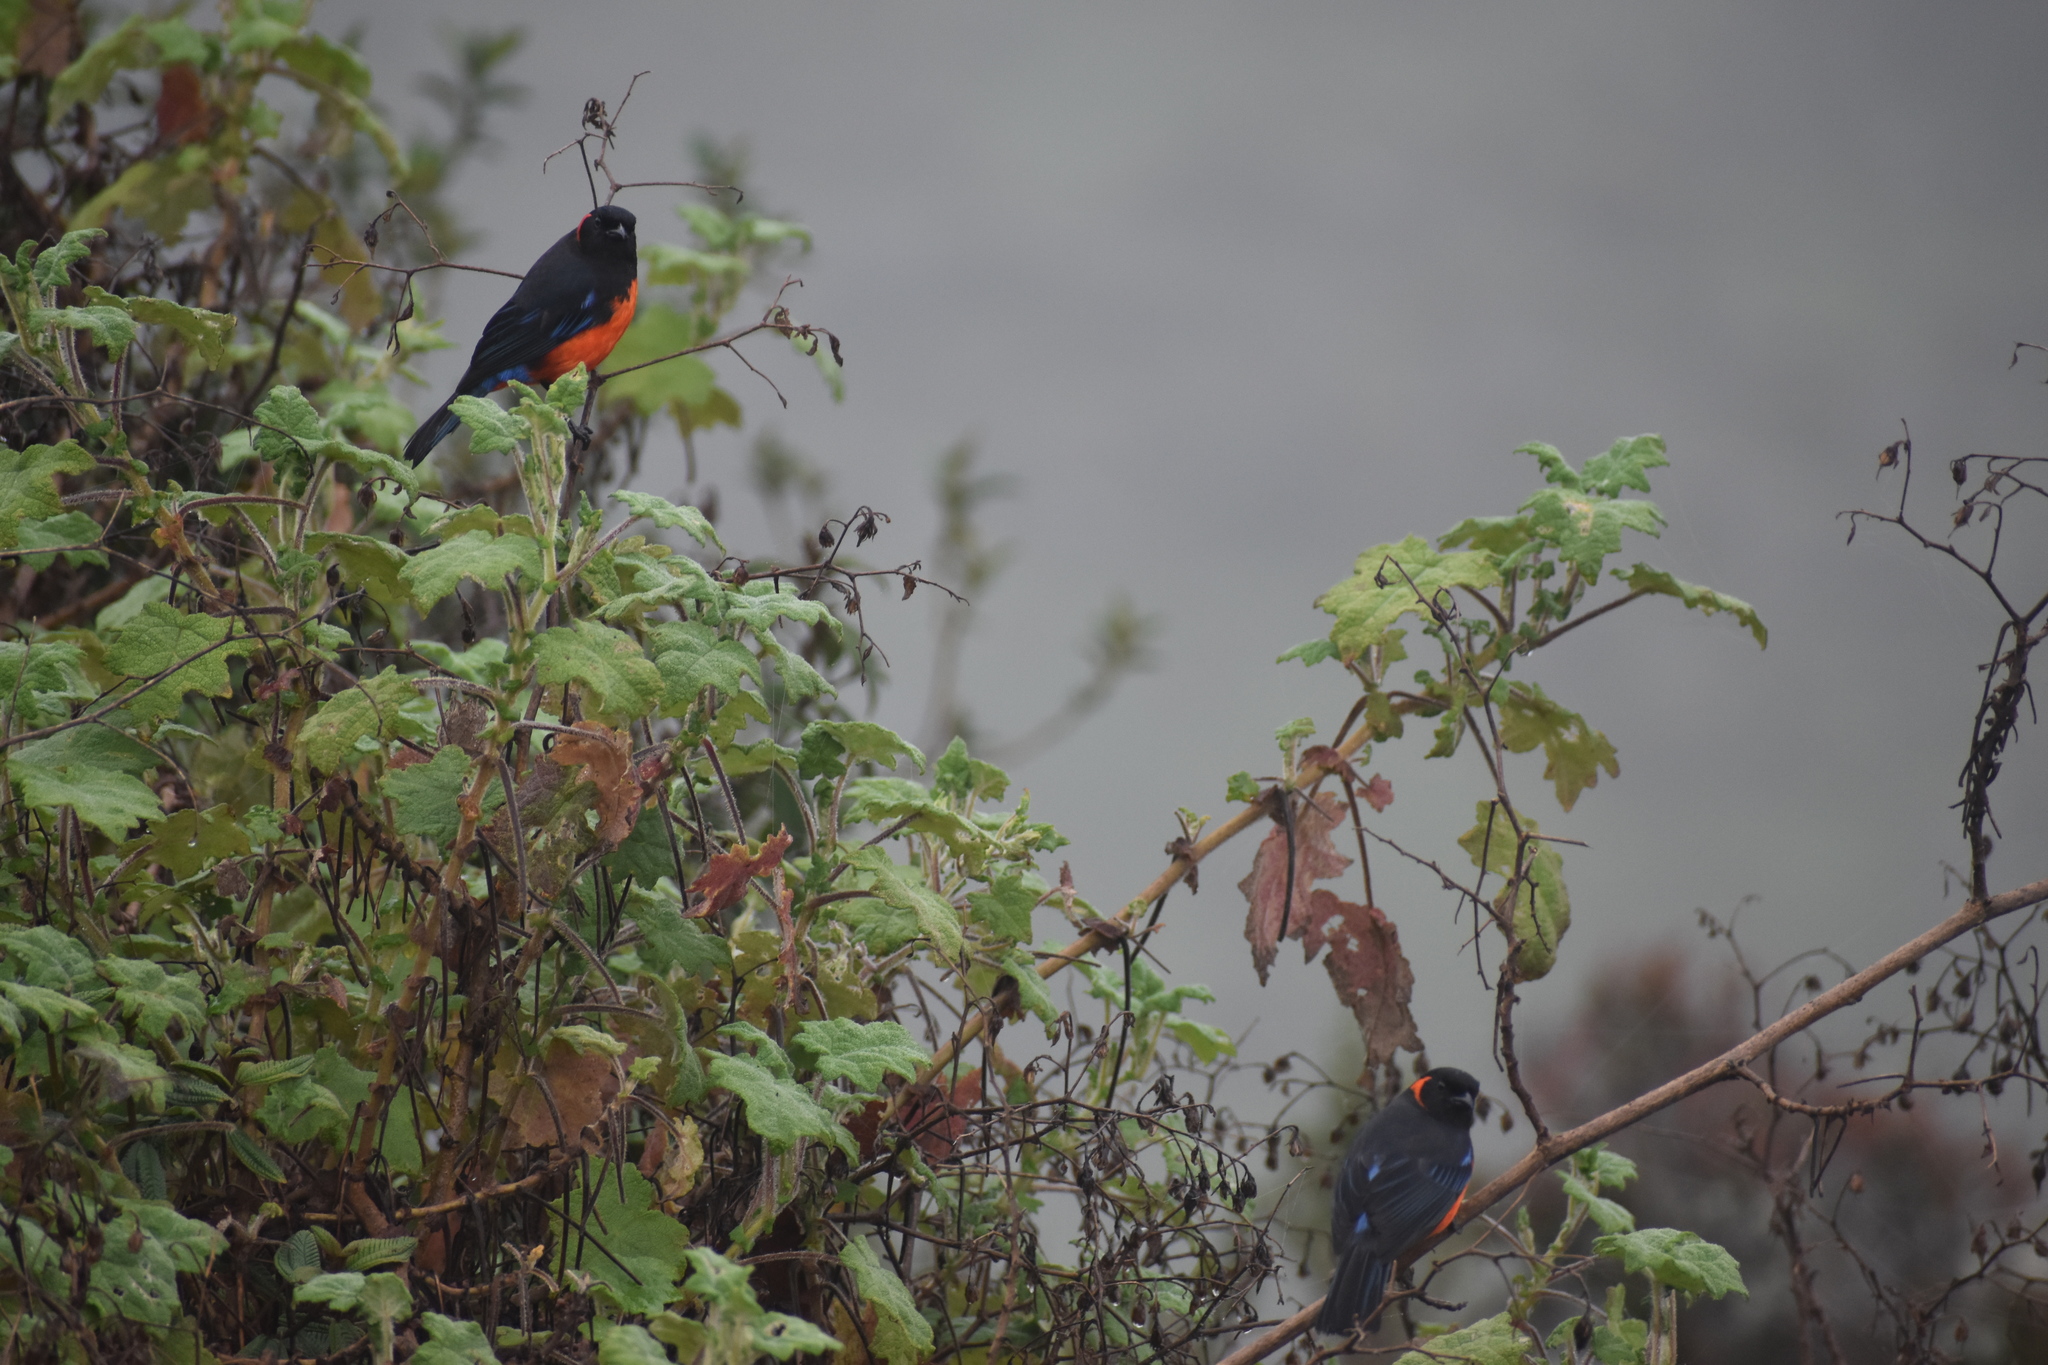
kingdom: Animalia
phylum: Chordata
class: Aves
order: Passeriformes
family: Thraupidae
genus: Anisognathus
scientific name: Anisognathus igniventris
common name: Scarlet-bellied mountain tanager
